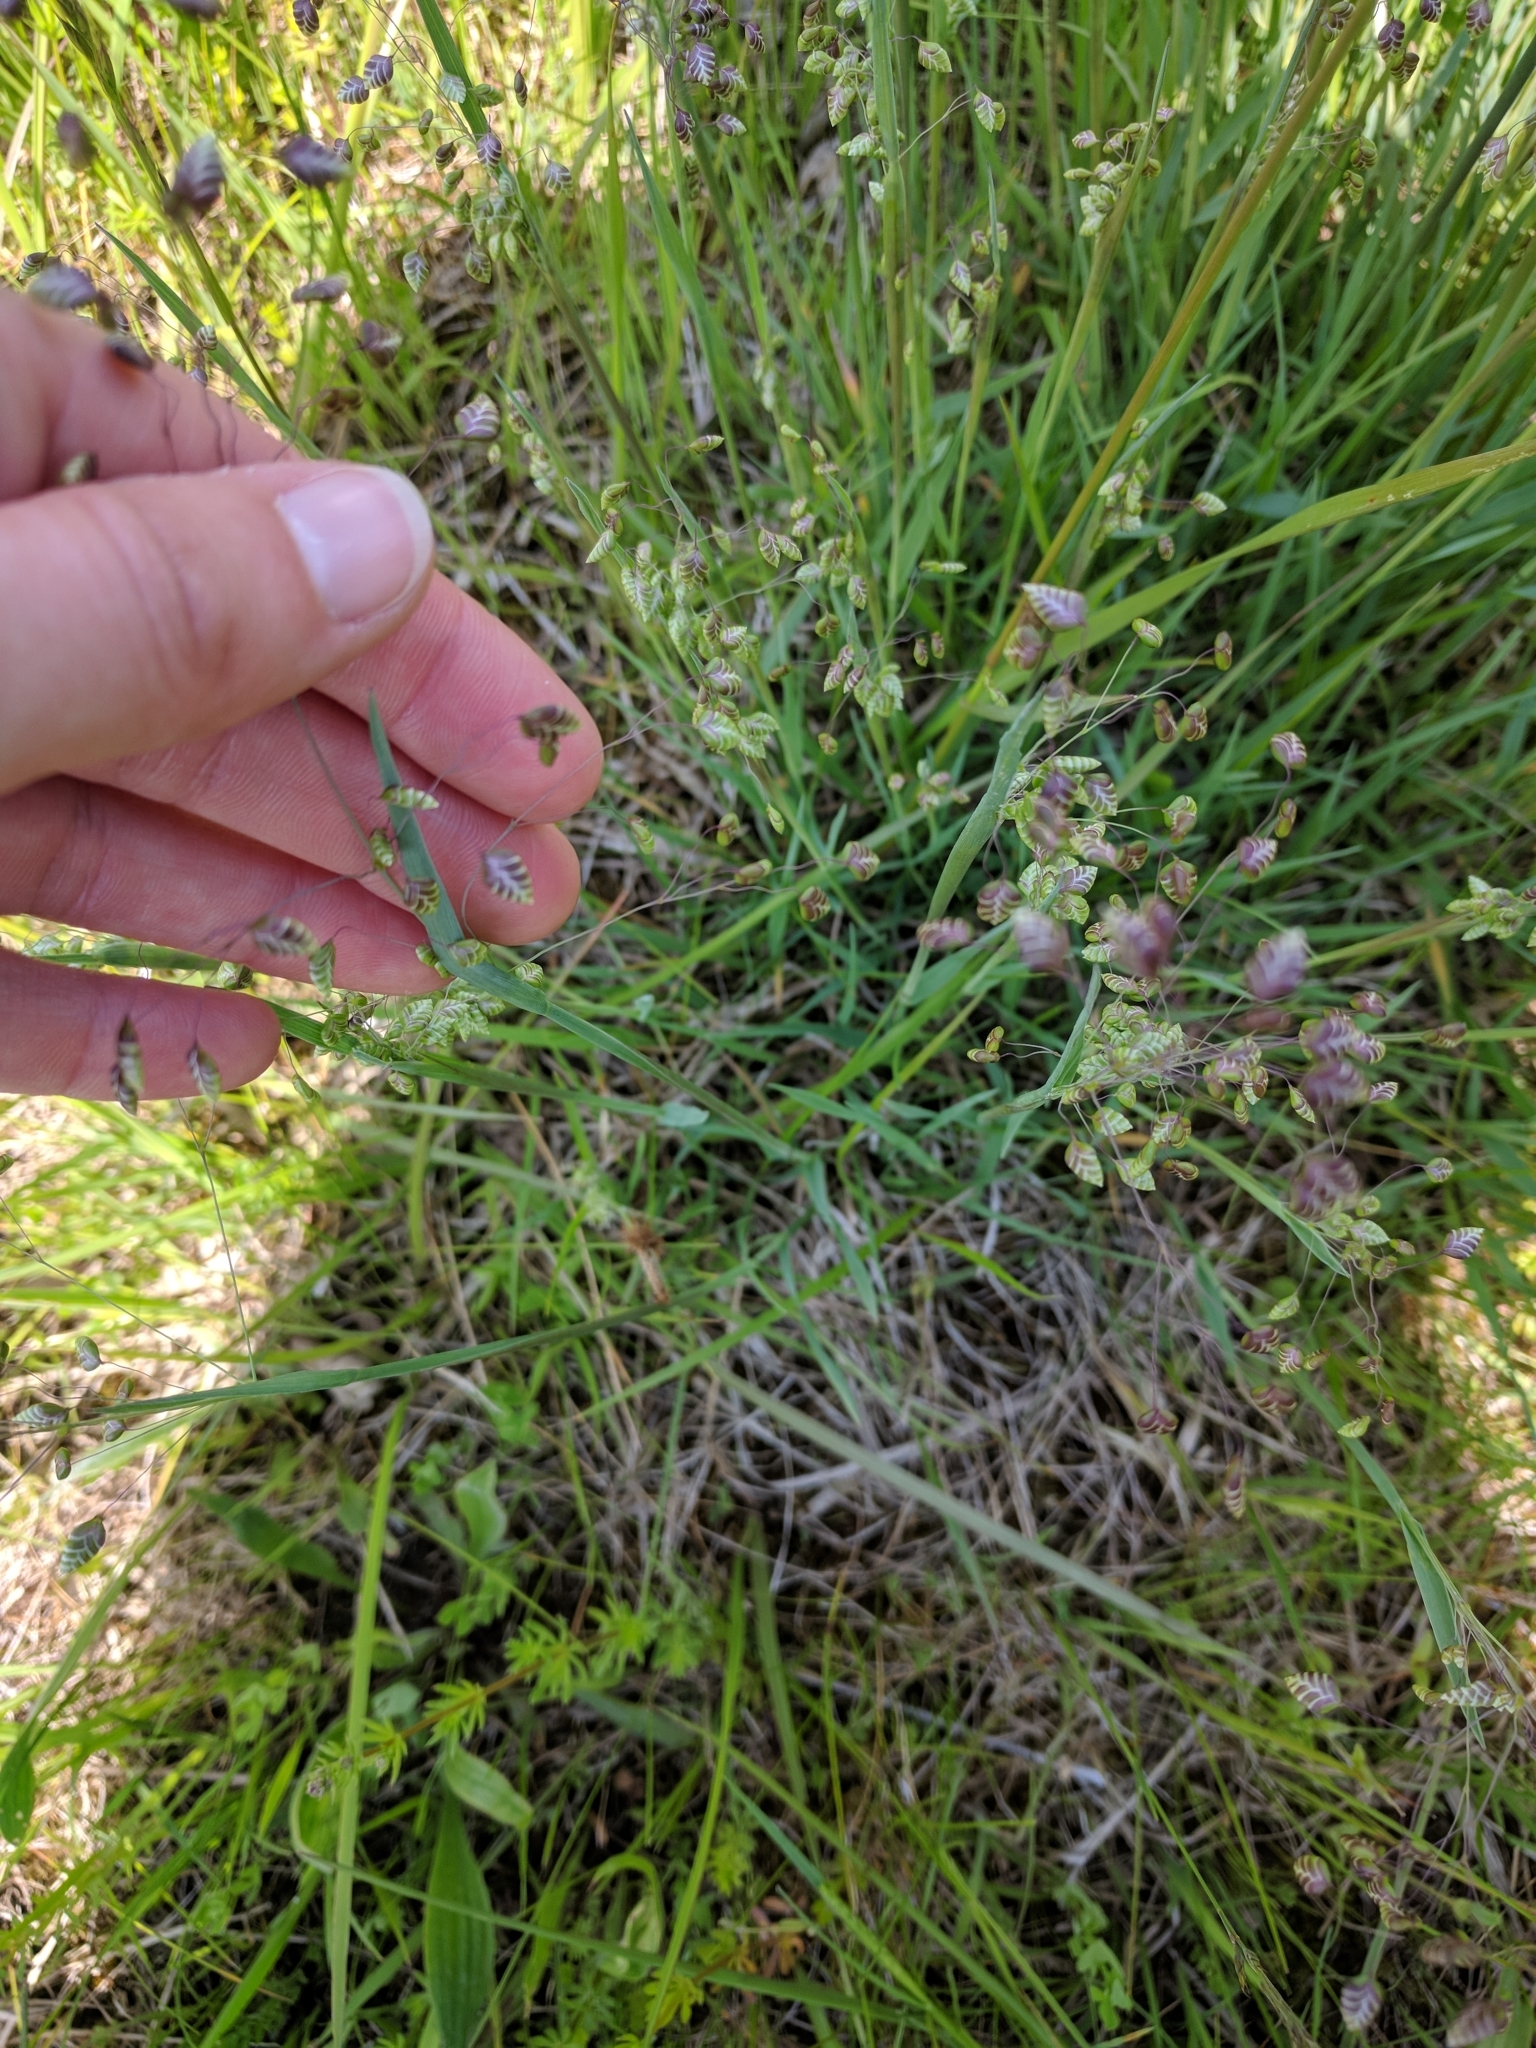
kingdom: Plantae
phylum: Tracheophyta
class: Liliopsida
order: Poales
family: Poaceae
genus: Briza
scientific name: Briza media
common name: Quaking grass
